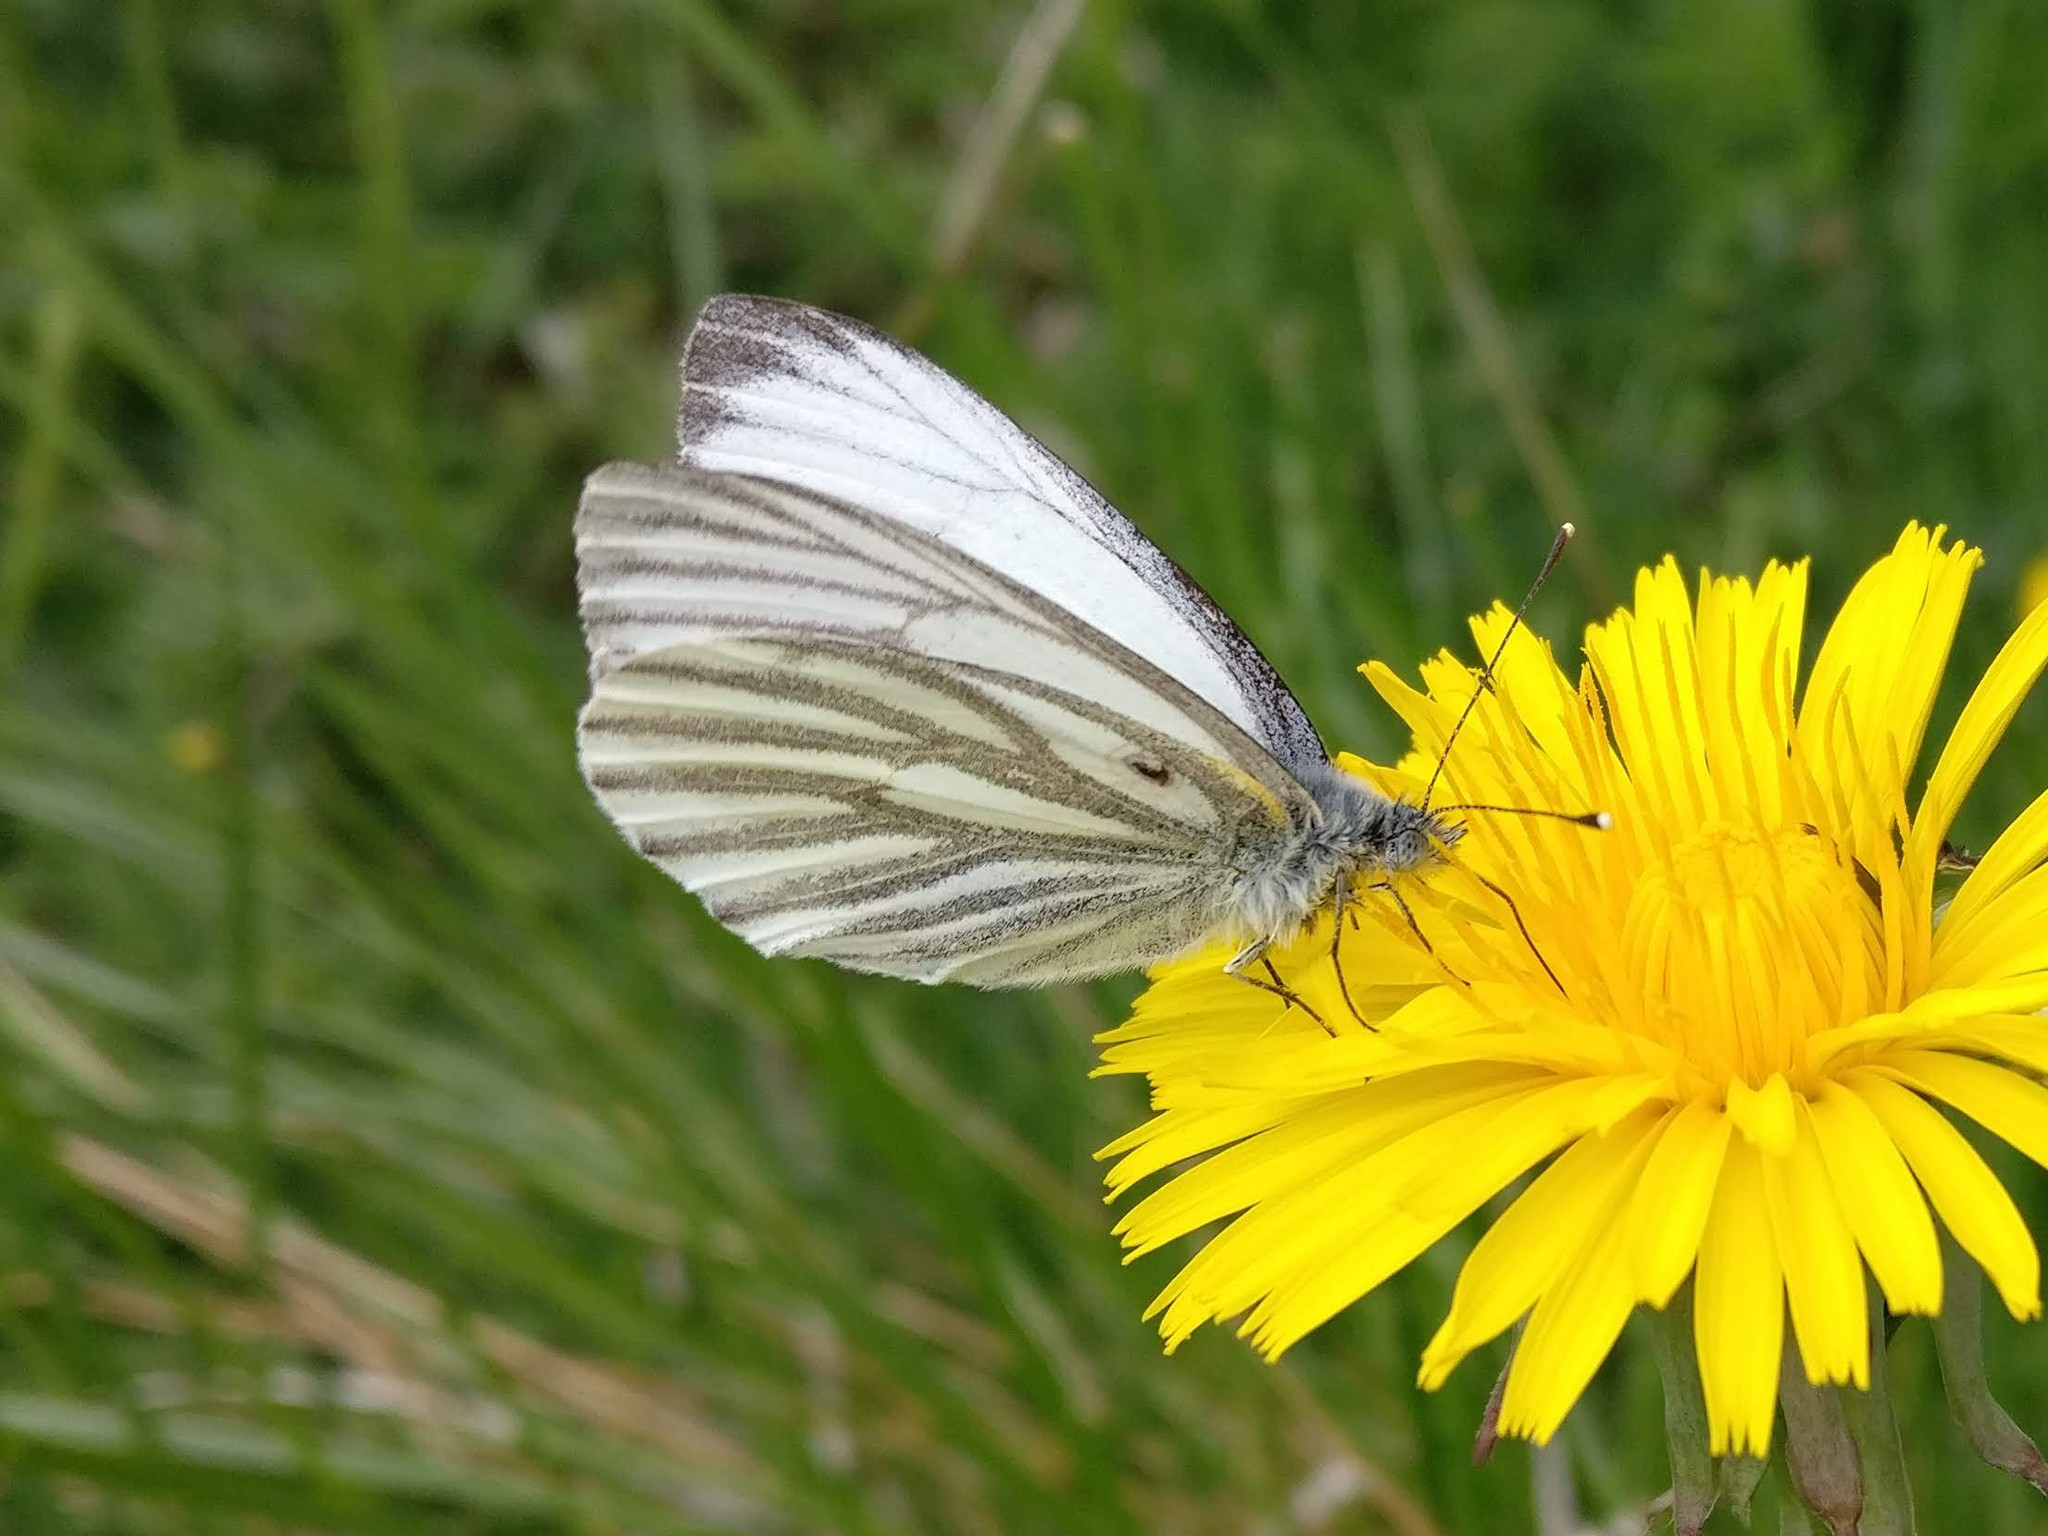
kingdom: Animalia
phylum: Arthropoda
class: Insecta
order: Lepidoptera
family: Pieridae
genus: Pieris
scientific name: Pieris napi
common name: Green-veined white
